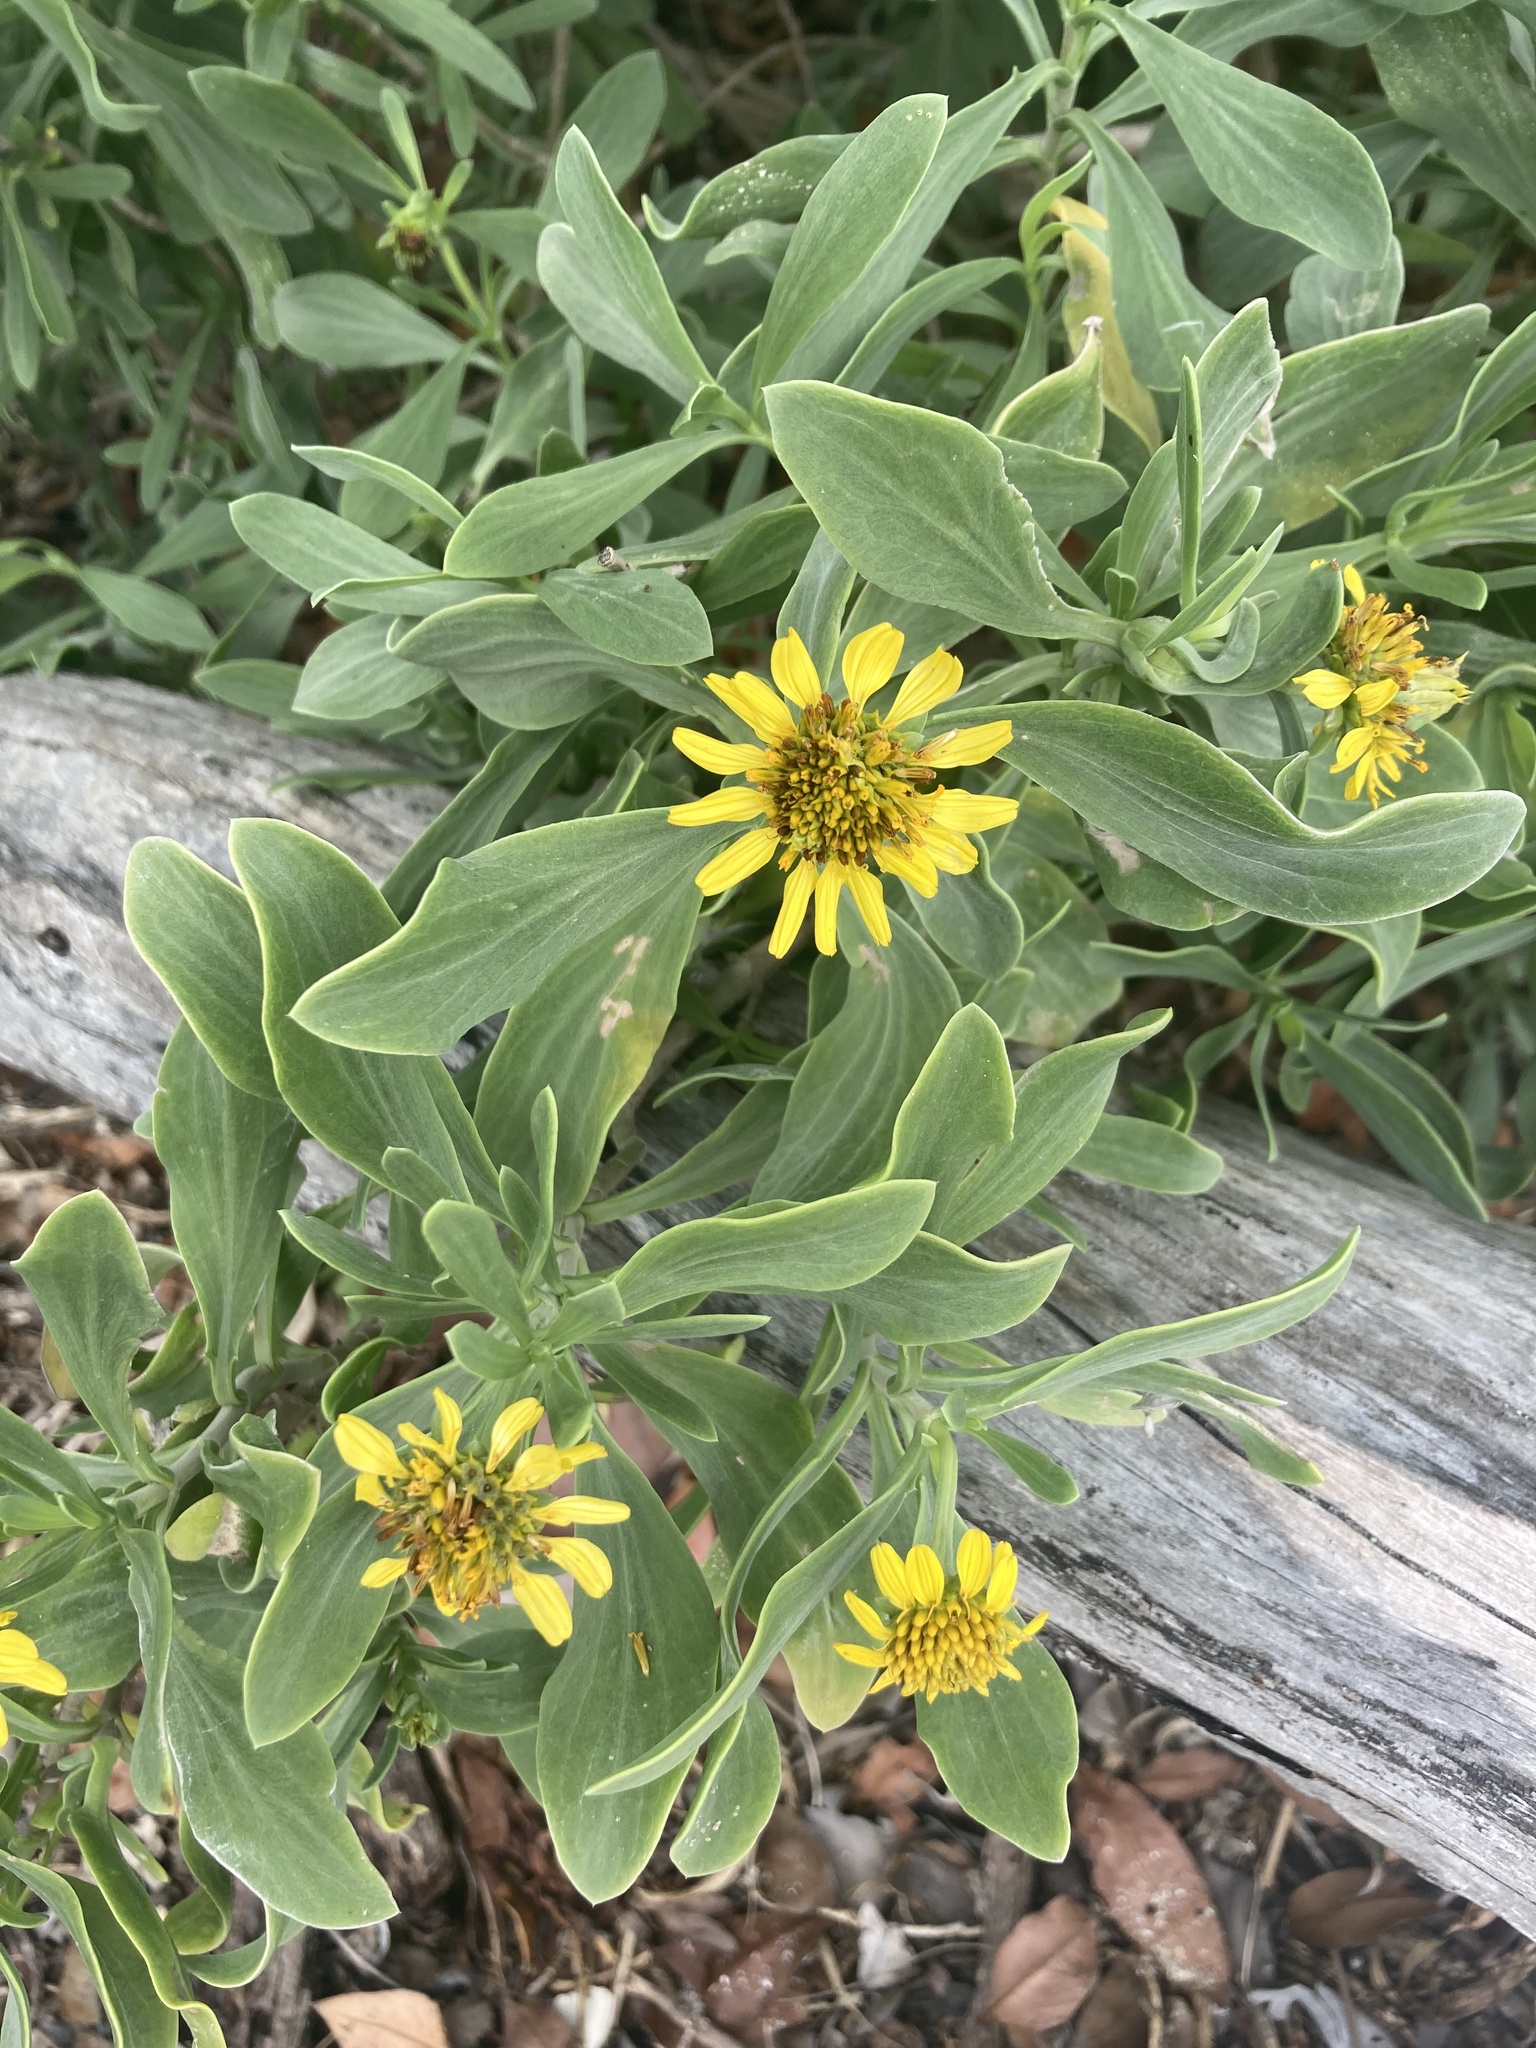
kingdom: Plantae
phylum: Tracheophyta
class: Magnoliopsida
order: Asterales
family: Asteraceae
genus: Borrichia
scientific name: Borrichia frutescens
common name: Sea oxeye
